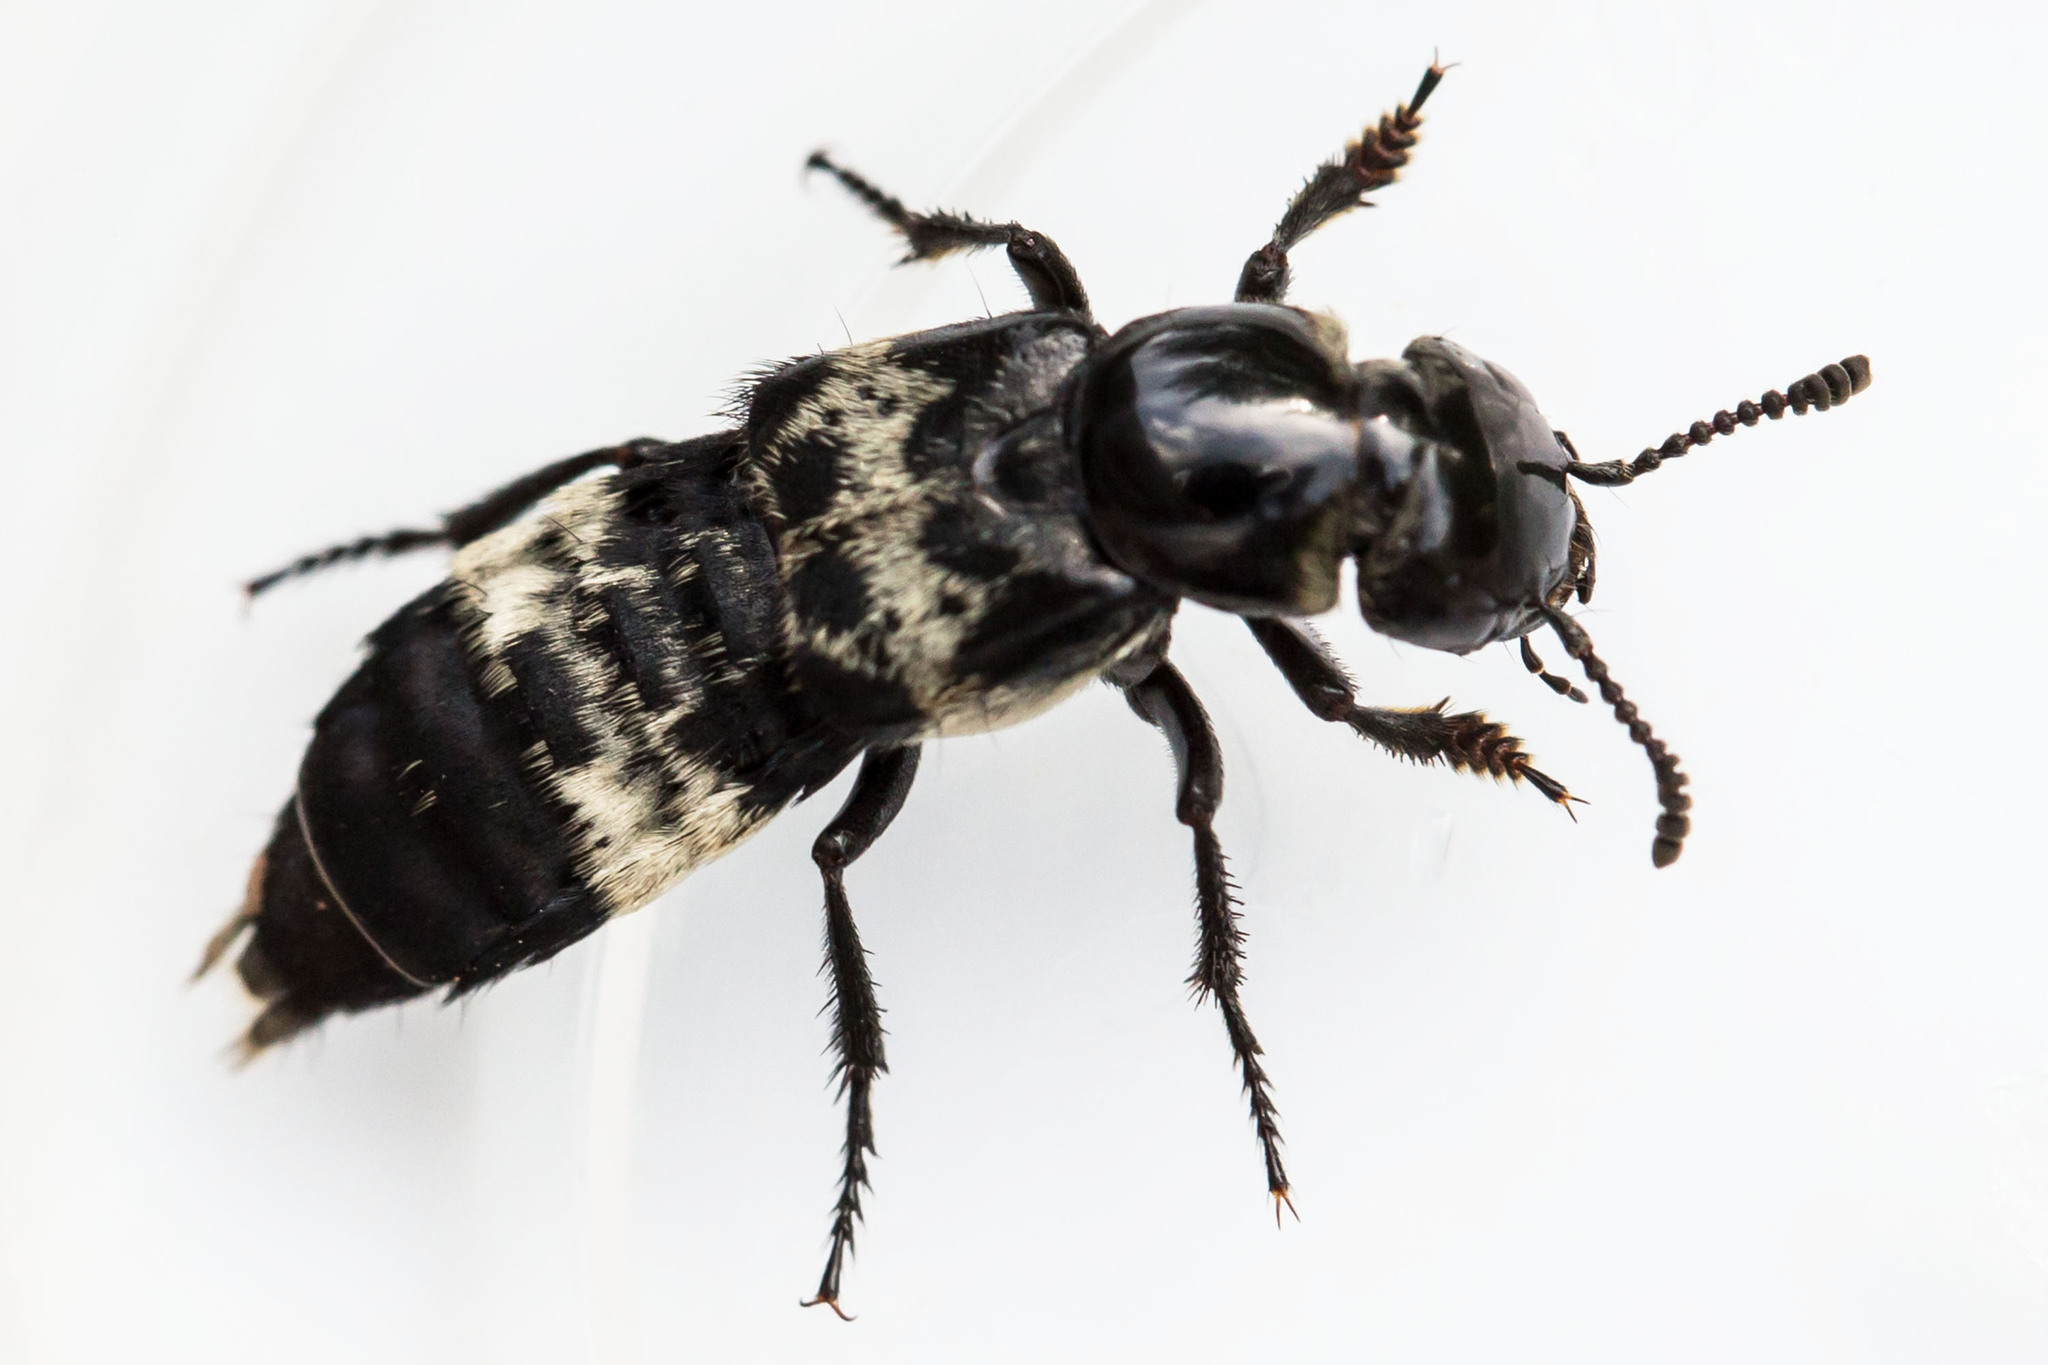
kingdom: Animalia
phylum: Arthropoda
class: Insecta
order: Coleoptera
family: Staphylinidae
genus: Creophilus
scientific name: Creophilus maxillosus
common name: Hairy rove beetle
